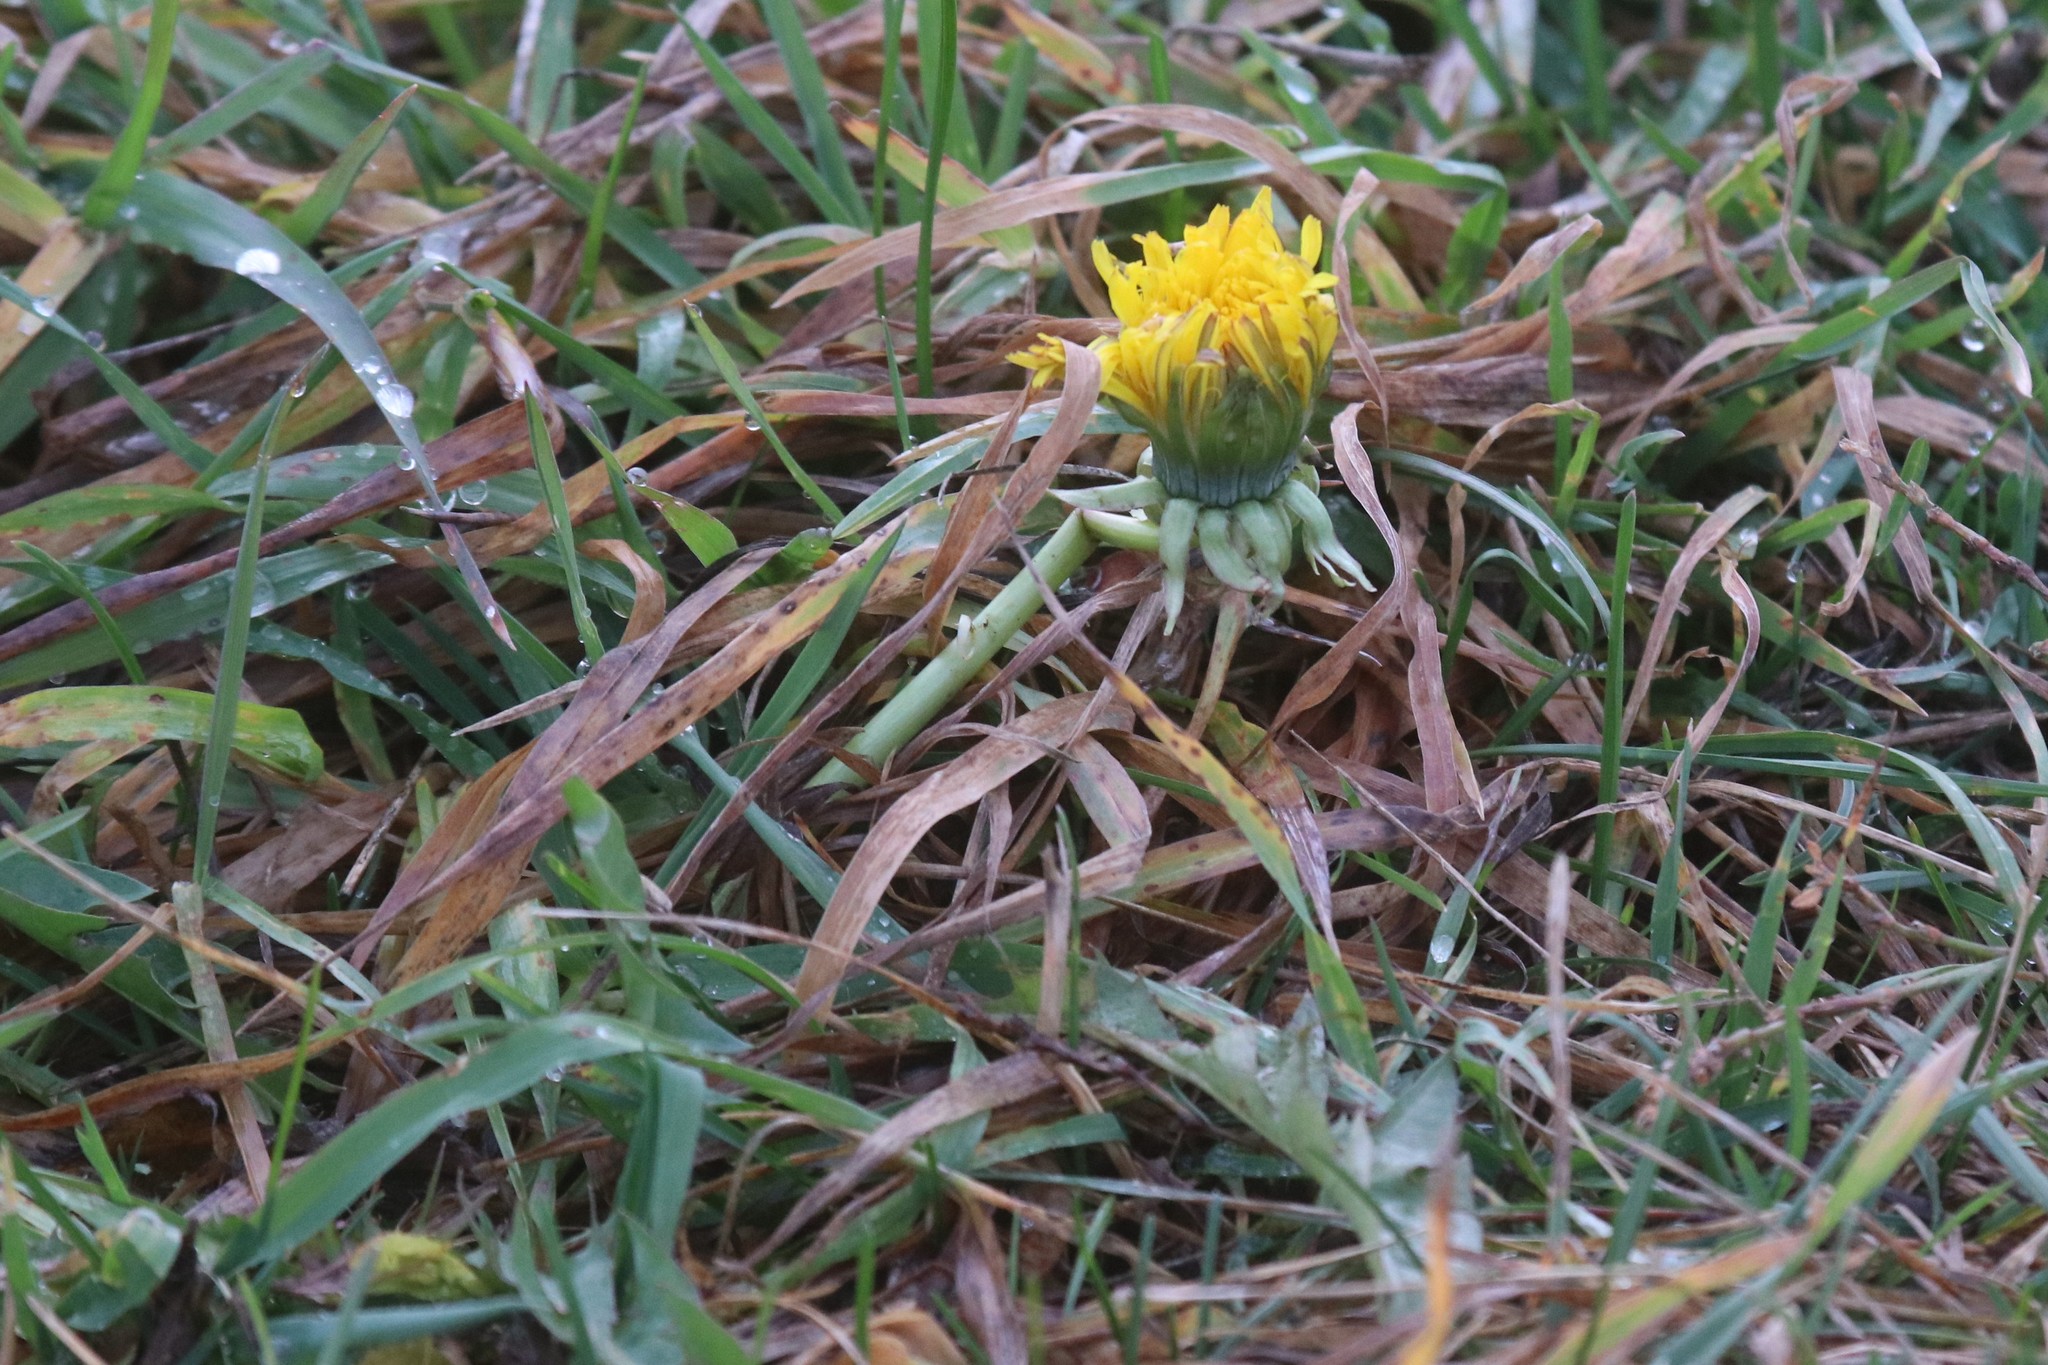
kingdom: Plantae
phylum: Tracheophyta
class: Magnoliopsida
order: Asterales
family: Asteraceae
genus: Taraxacum
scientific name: Taraxacum officinale
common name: Common dandelion
